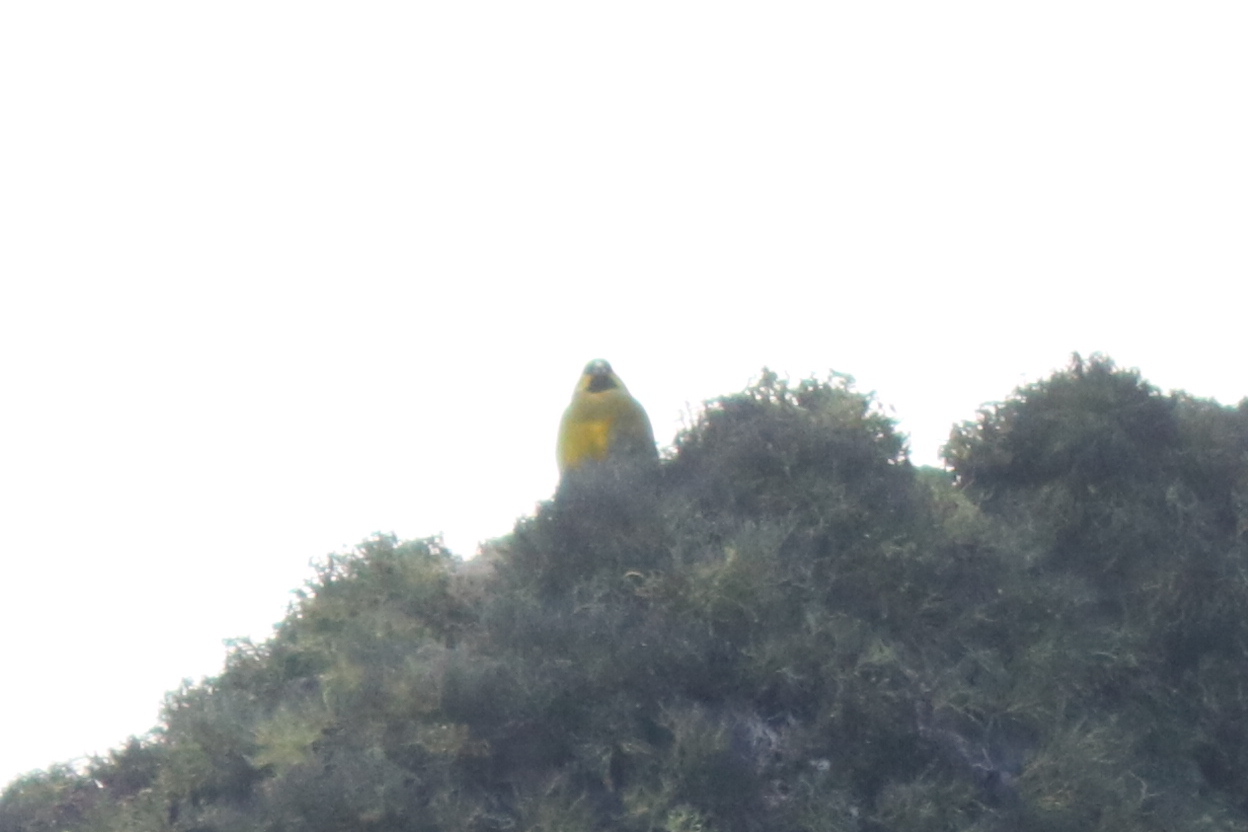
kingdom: Animalia
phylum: Chordata
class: Aves
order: Passeriformes
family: Thraupidae
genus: Melanodera
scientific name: Melanodera xanthogramma
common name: Yellow-bridled finch
